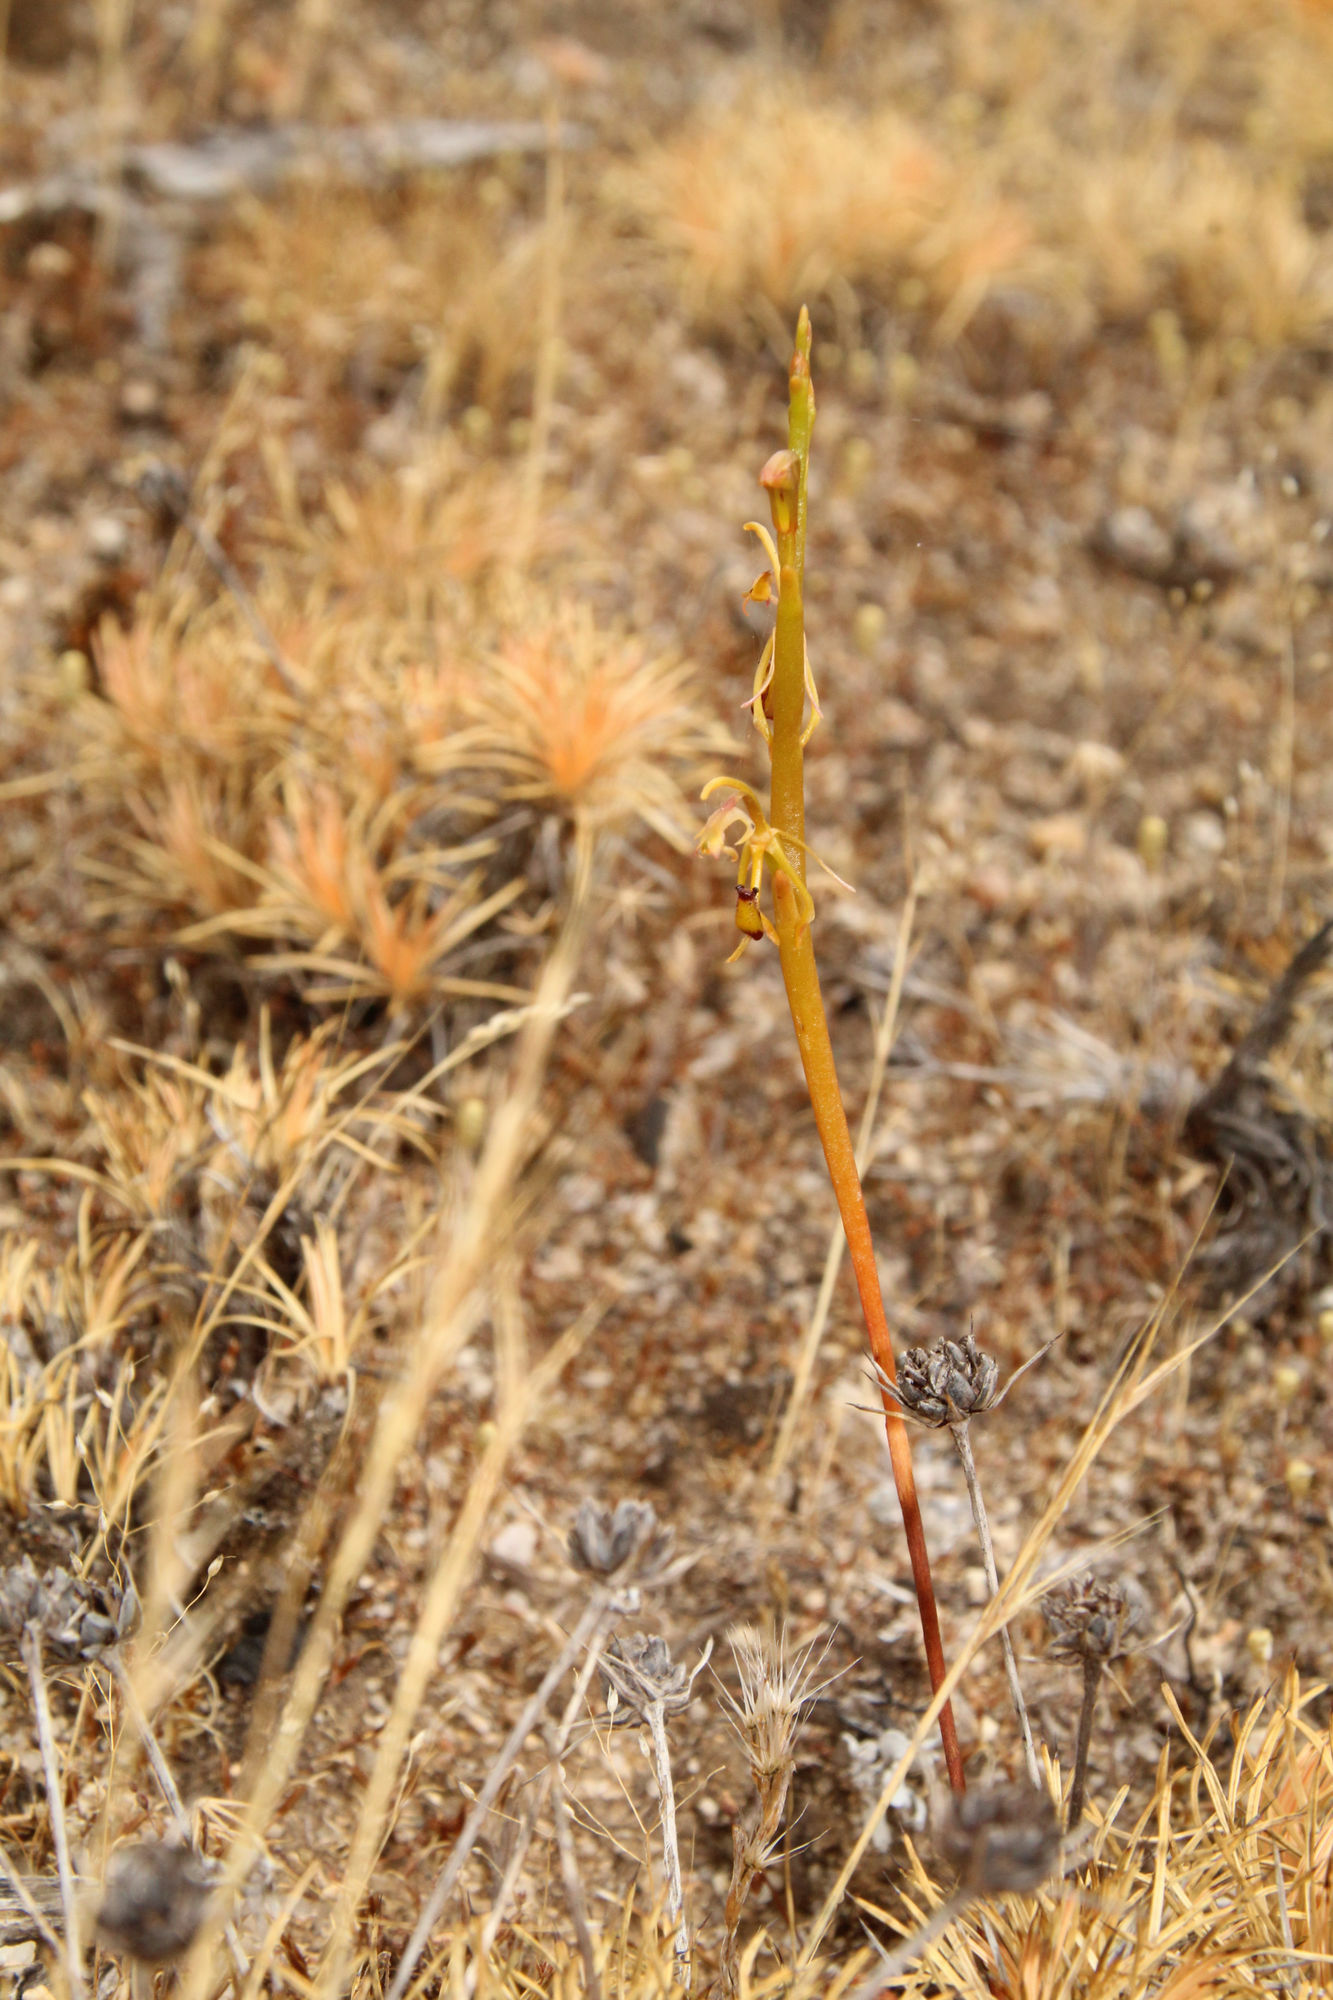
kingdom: Plantae
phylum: Tracheophyta
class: Liliopsida
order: Asparagales
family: Orchidaceae
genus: Spiculaea
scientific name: Spiculaea ciliata
